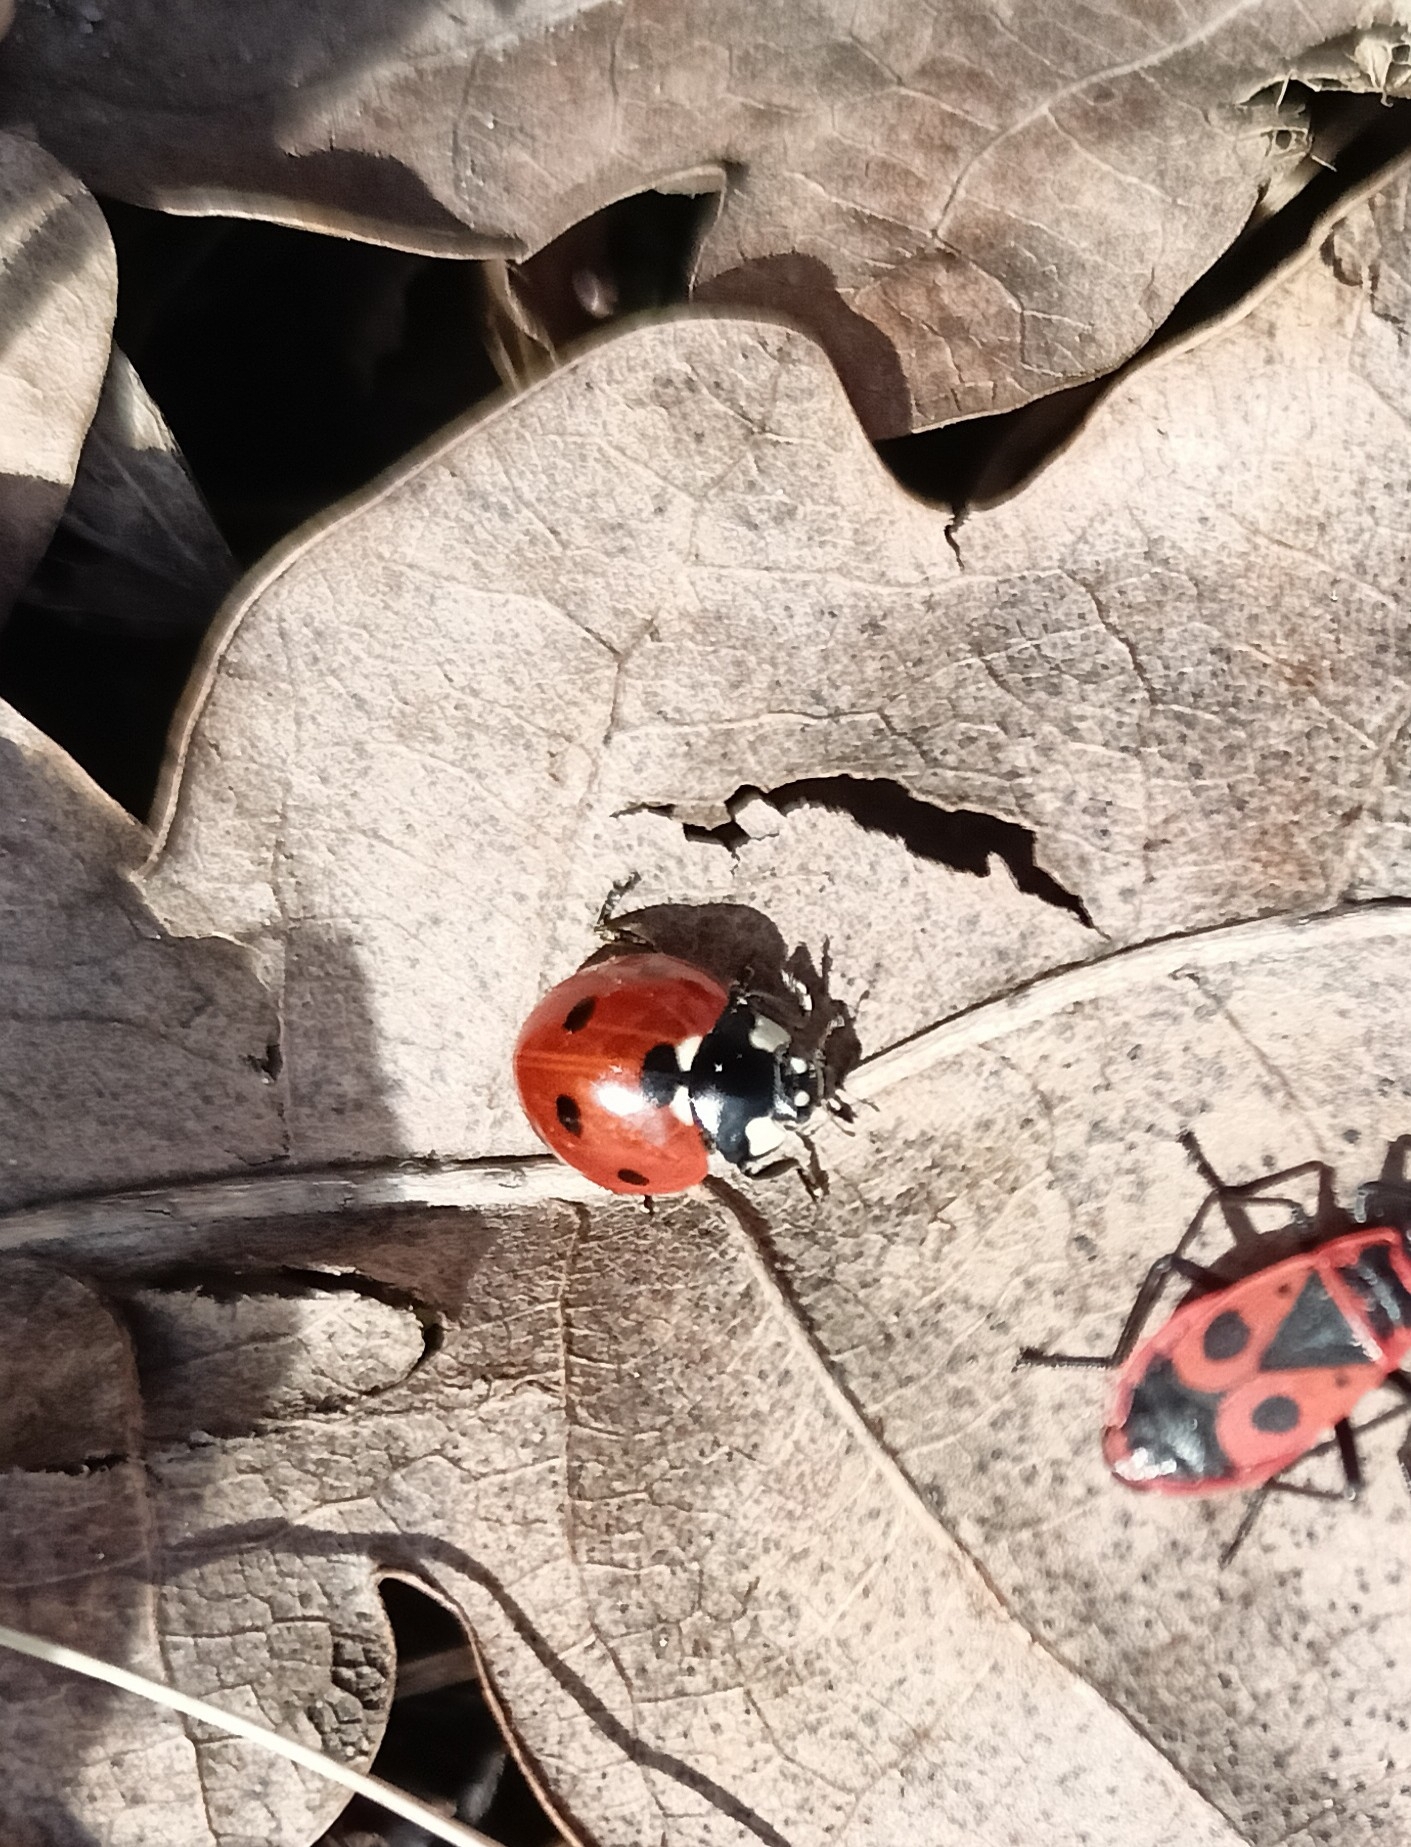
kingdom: Animalia
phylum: Arthropoda
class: Insecta
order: Coleoptera
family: Coccinellidae
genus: Coccinella
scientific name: Coccinella septempunctata
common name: Sevenspotted lady beetle
